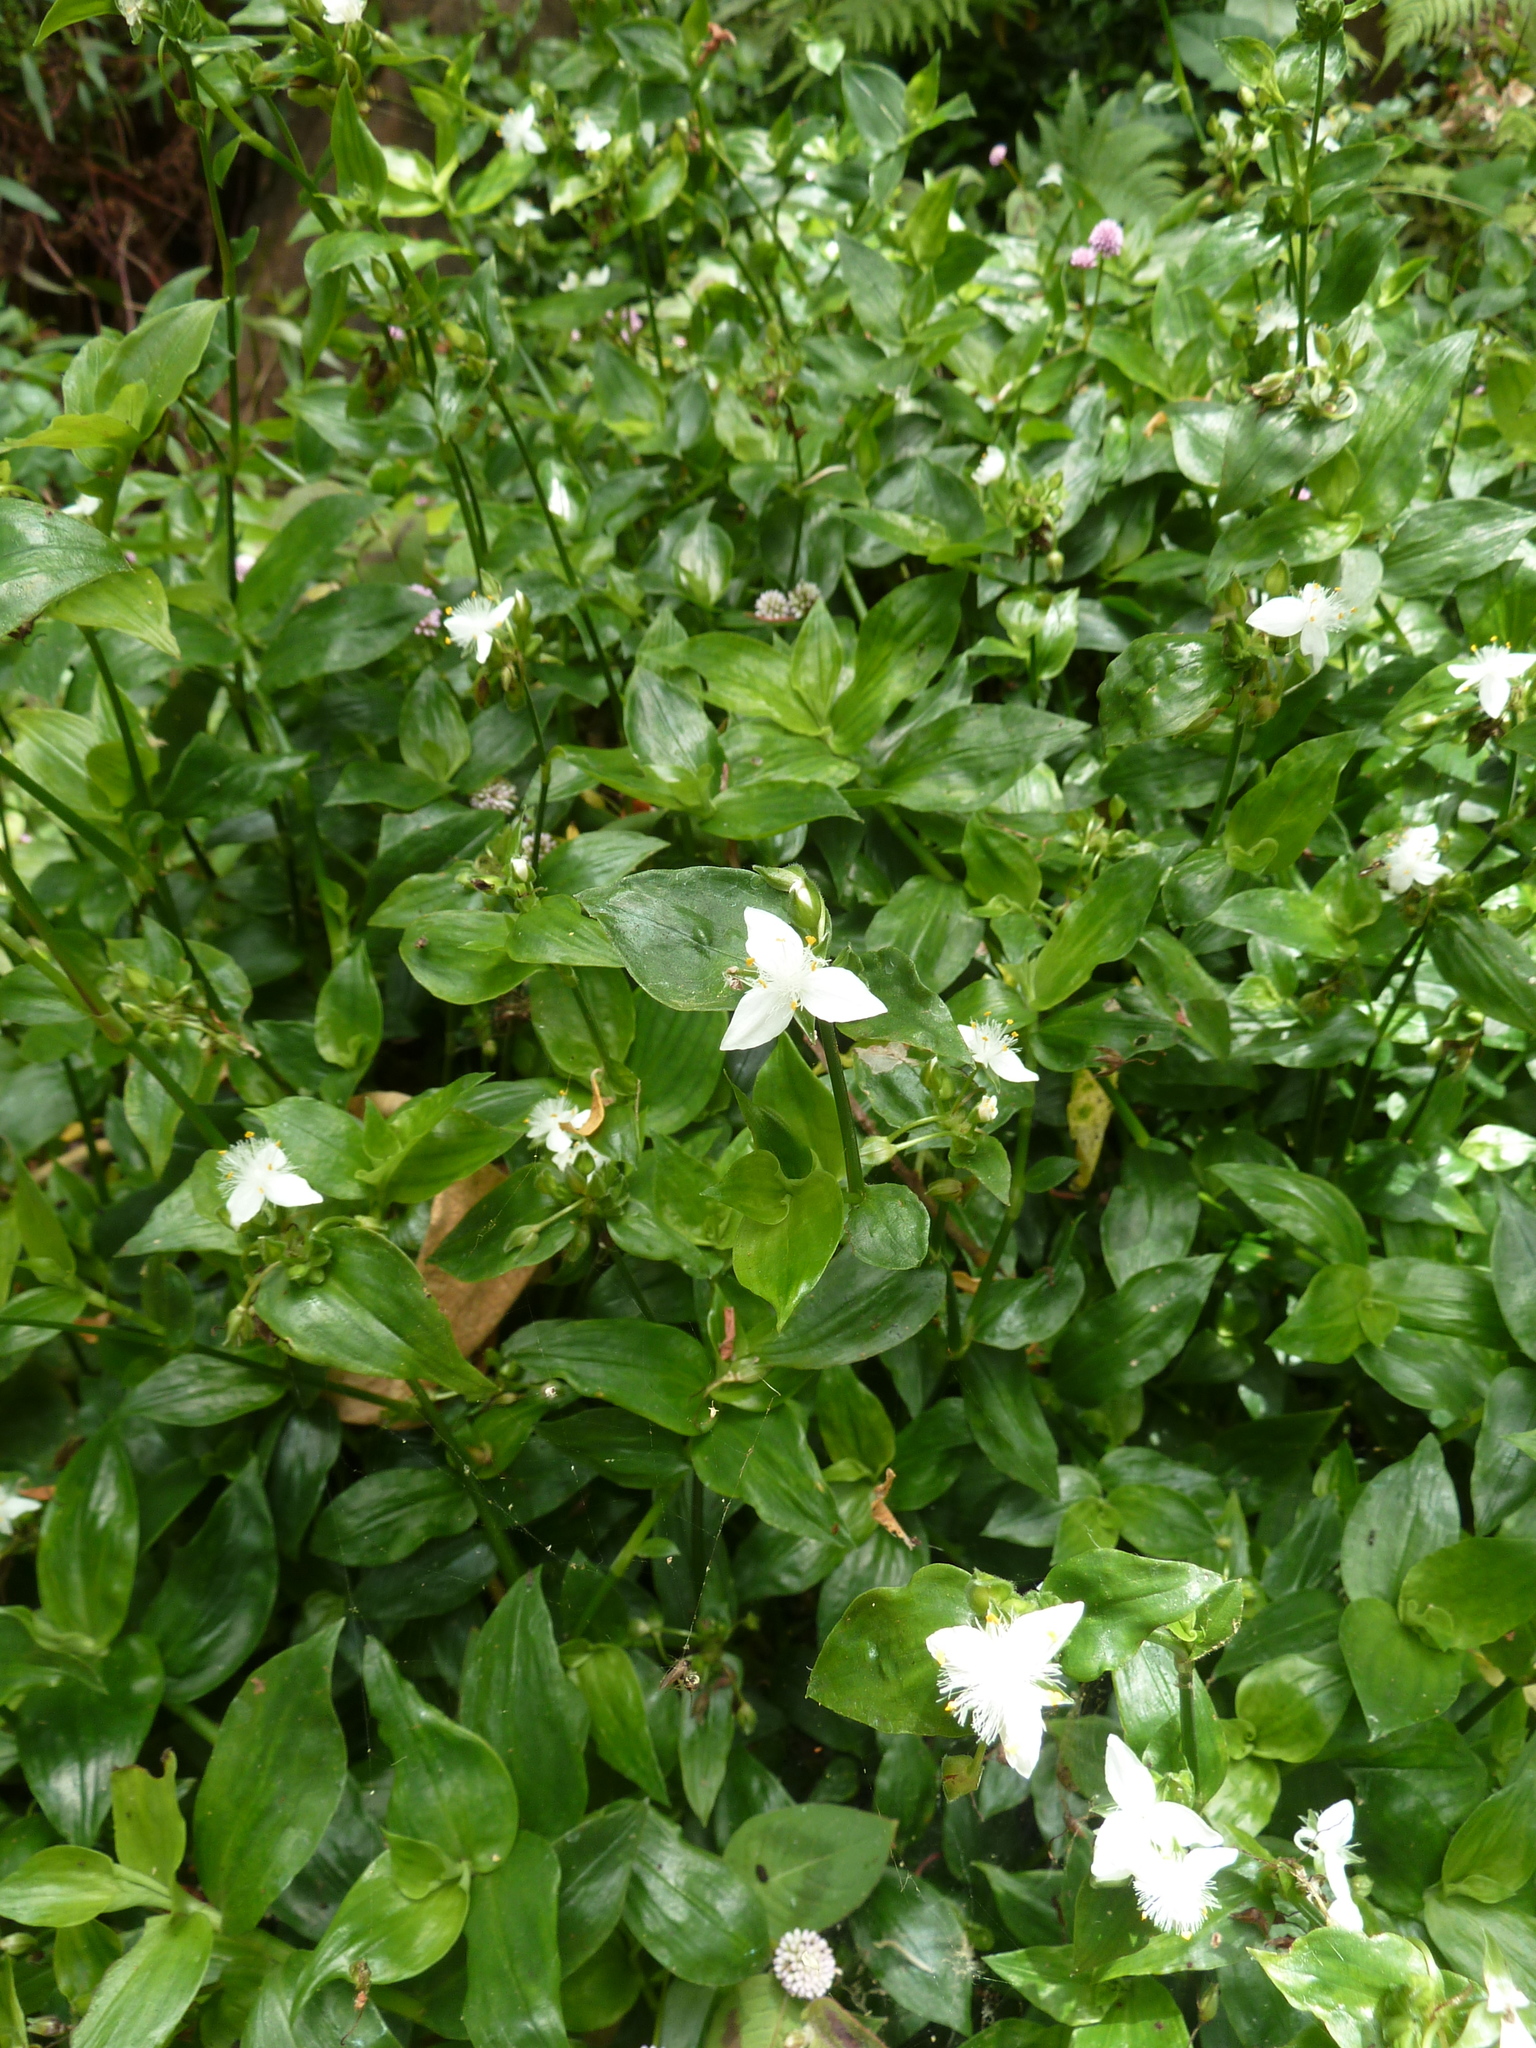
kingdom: Plantae
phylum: Tracheophyta
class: Liliopsida
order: Commelinales
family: Commelinaceae
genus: Tradescantia
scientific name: Tradescantia fluminensis
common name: Wandering-jew
